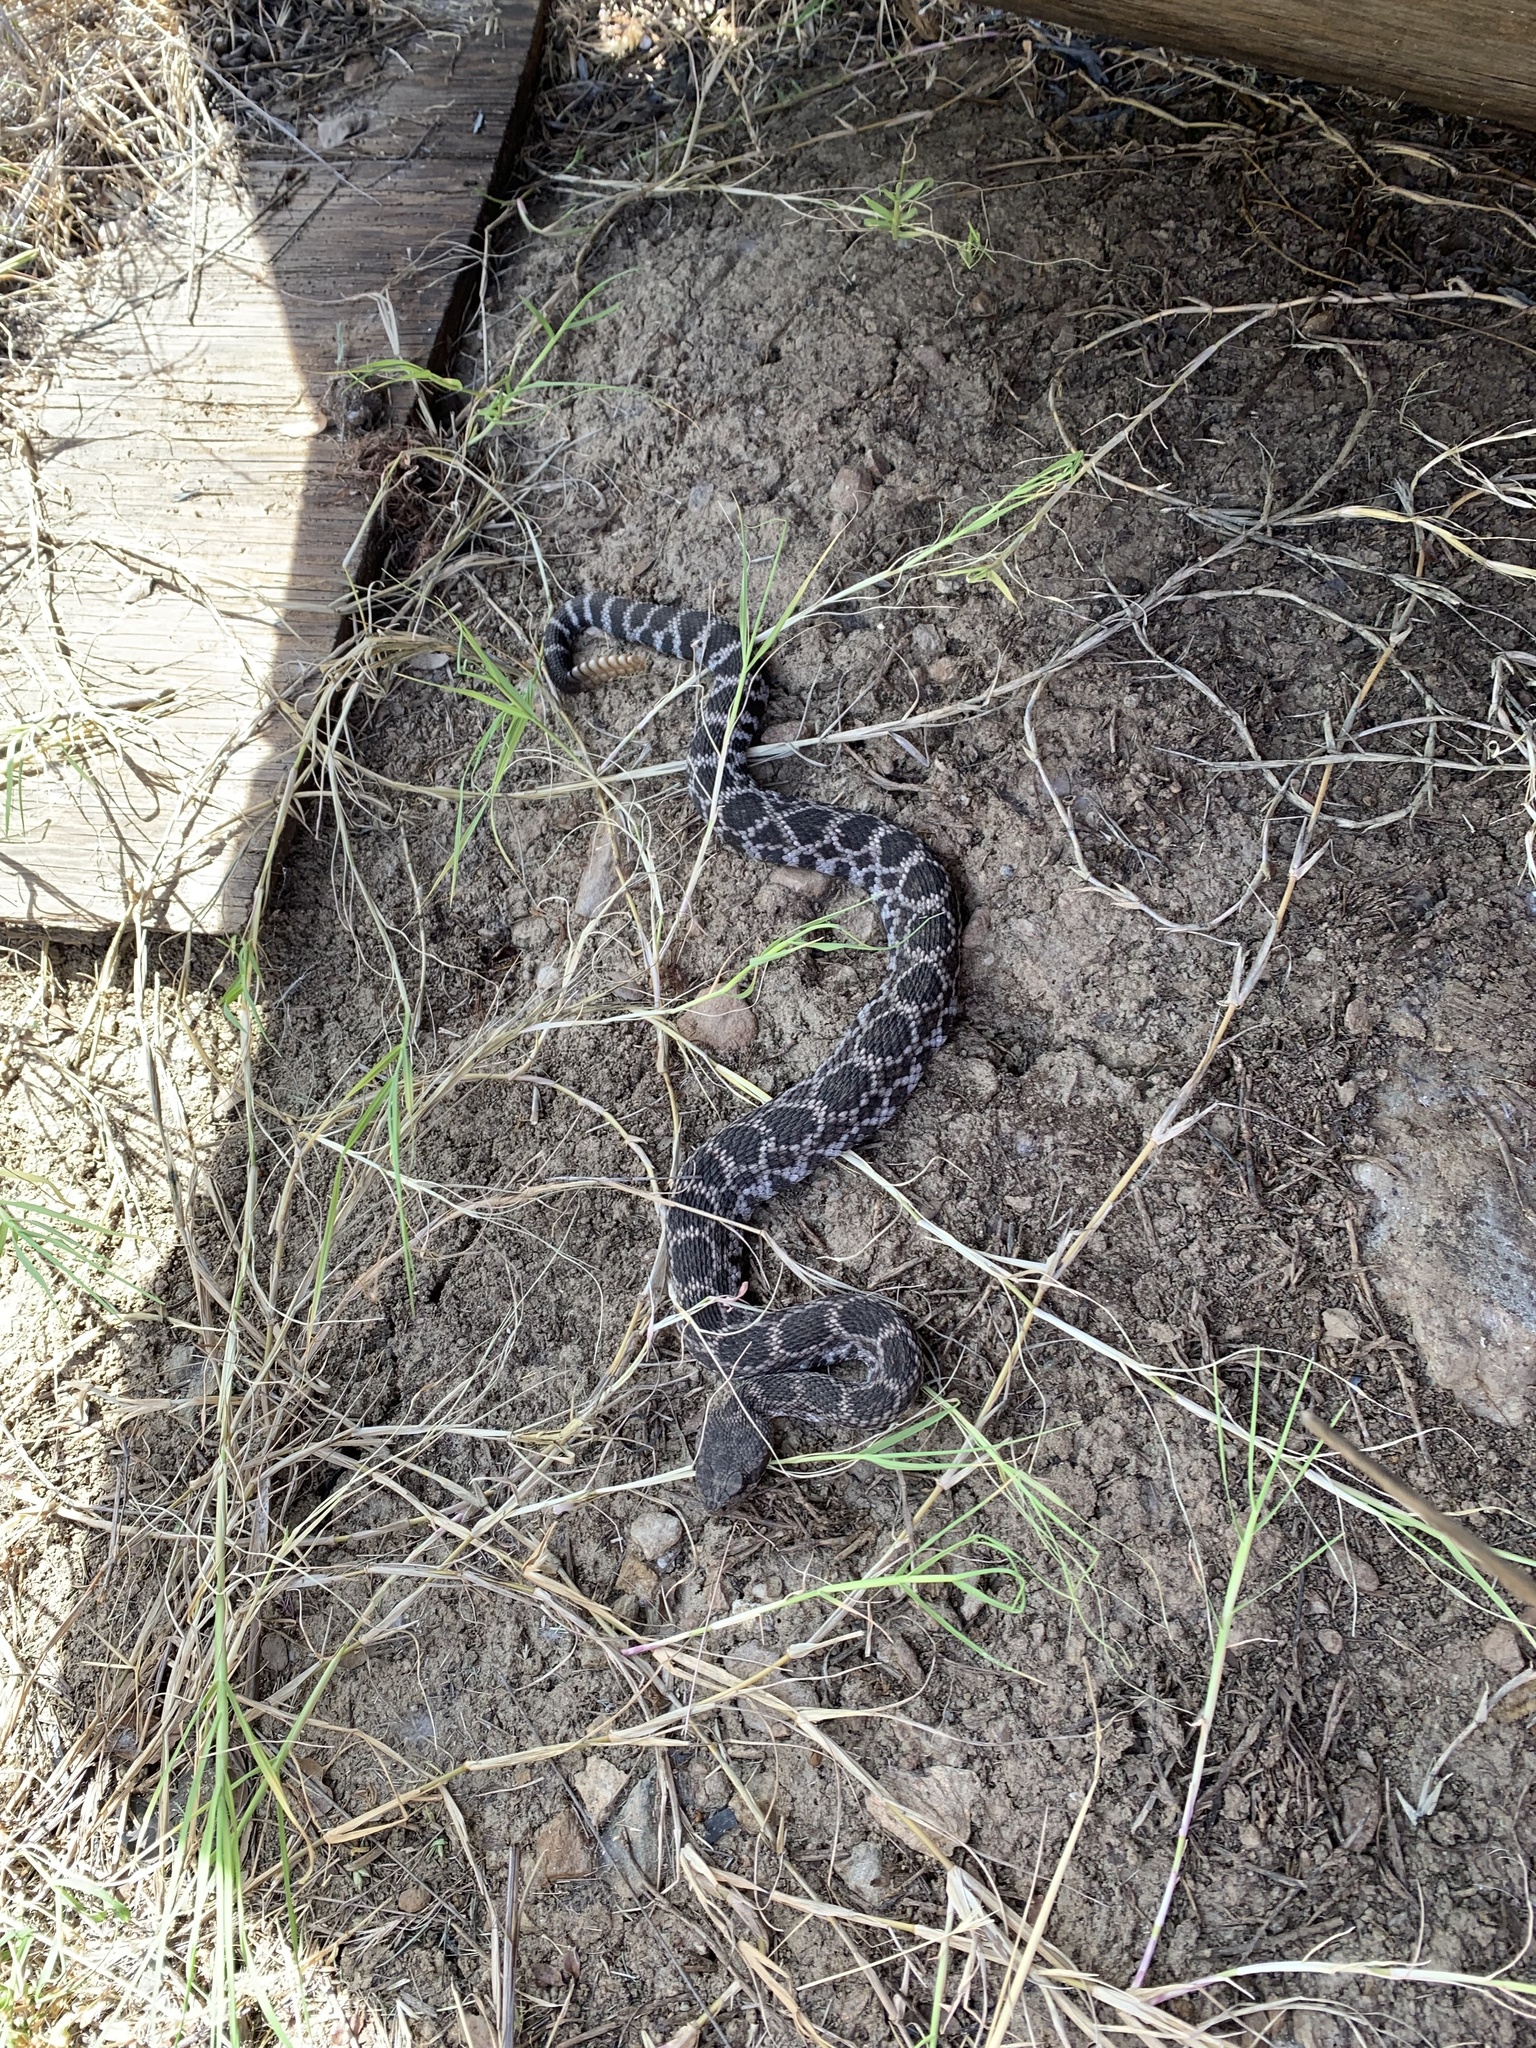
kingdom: Animalia
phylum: Chordata
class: Squamata
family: Viperidae
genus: Crotalus
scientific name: Crotalus oreganus
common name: Abyssus
